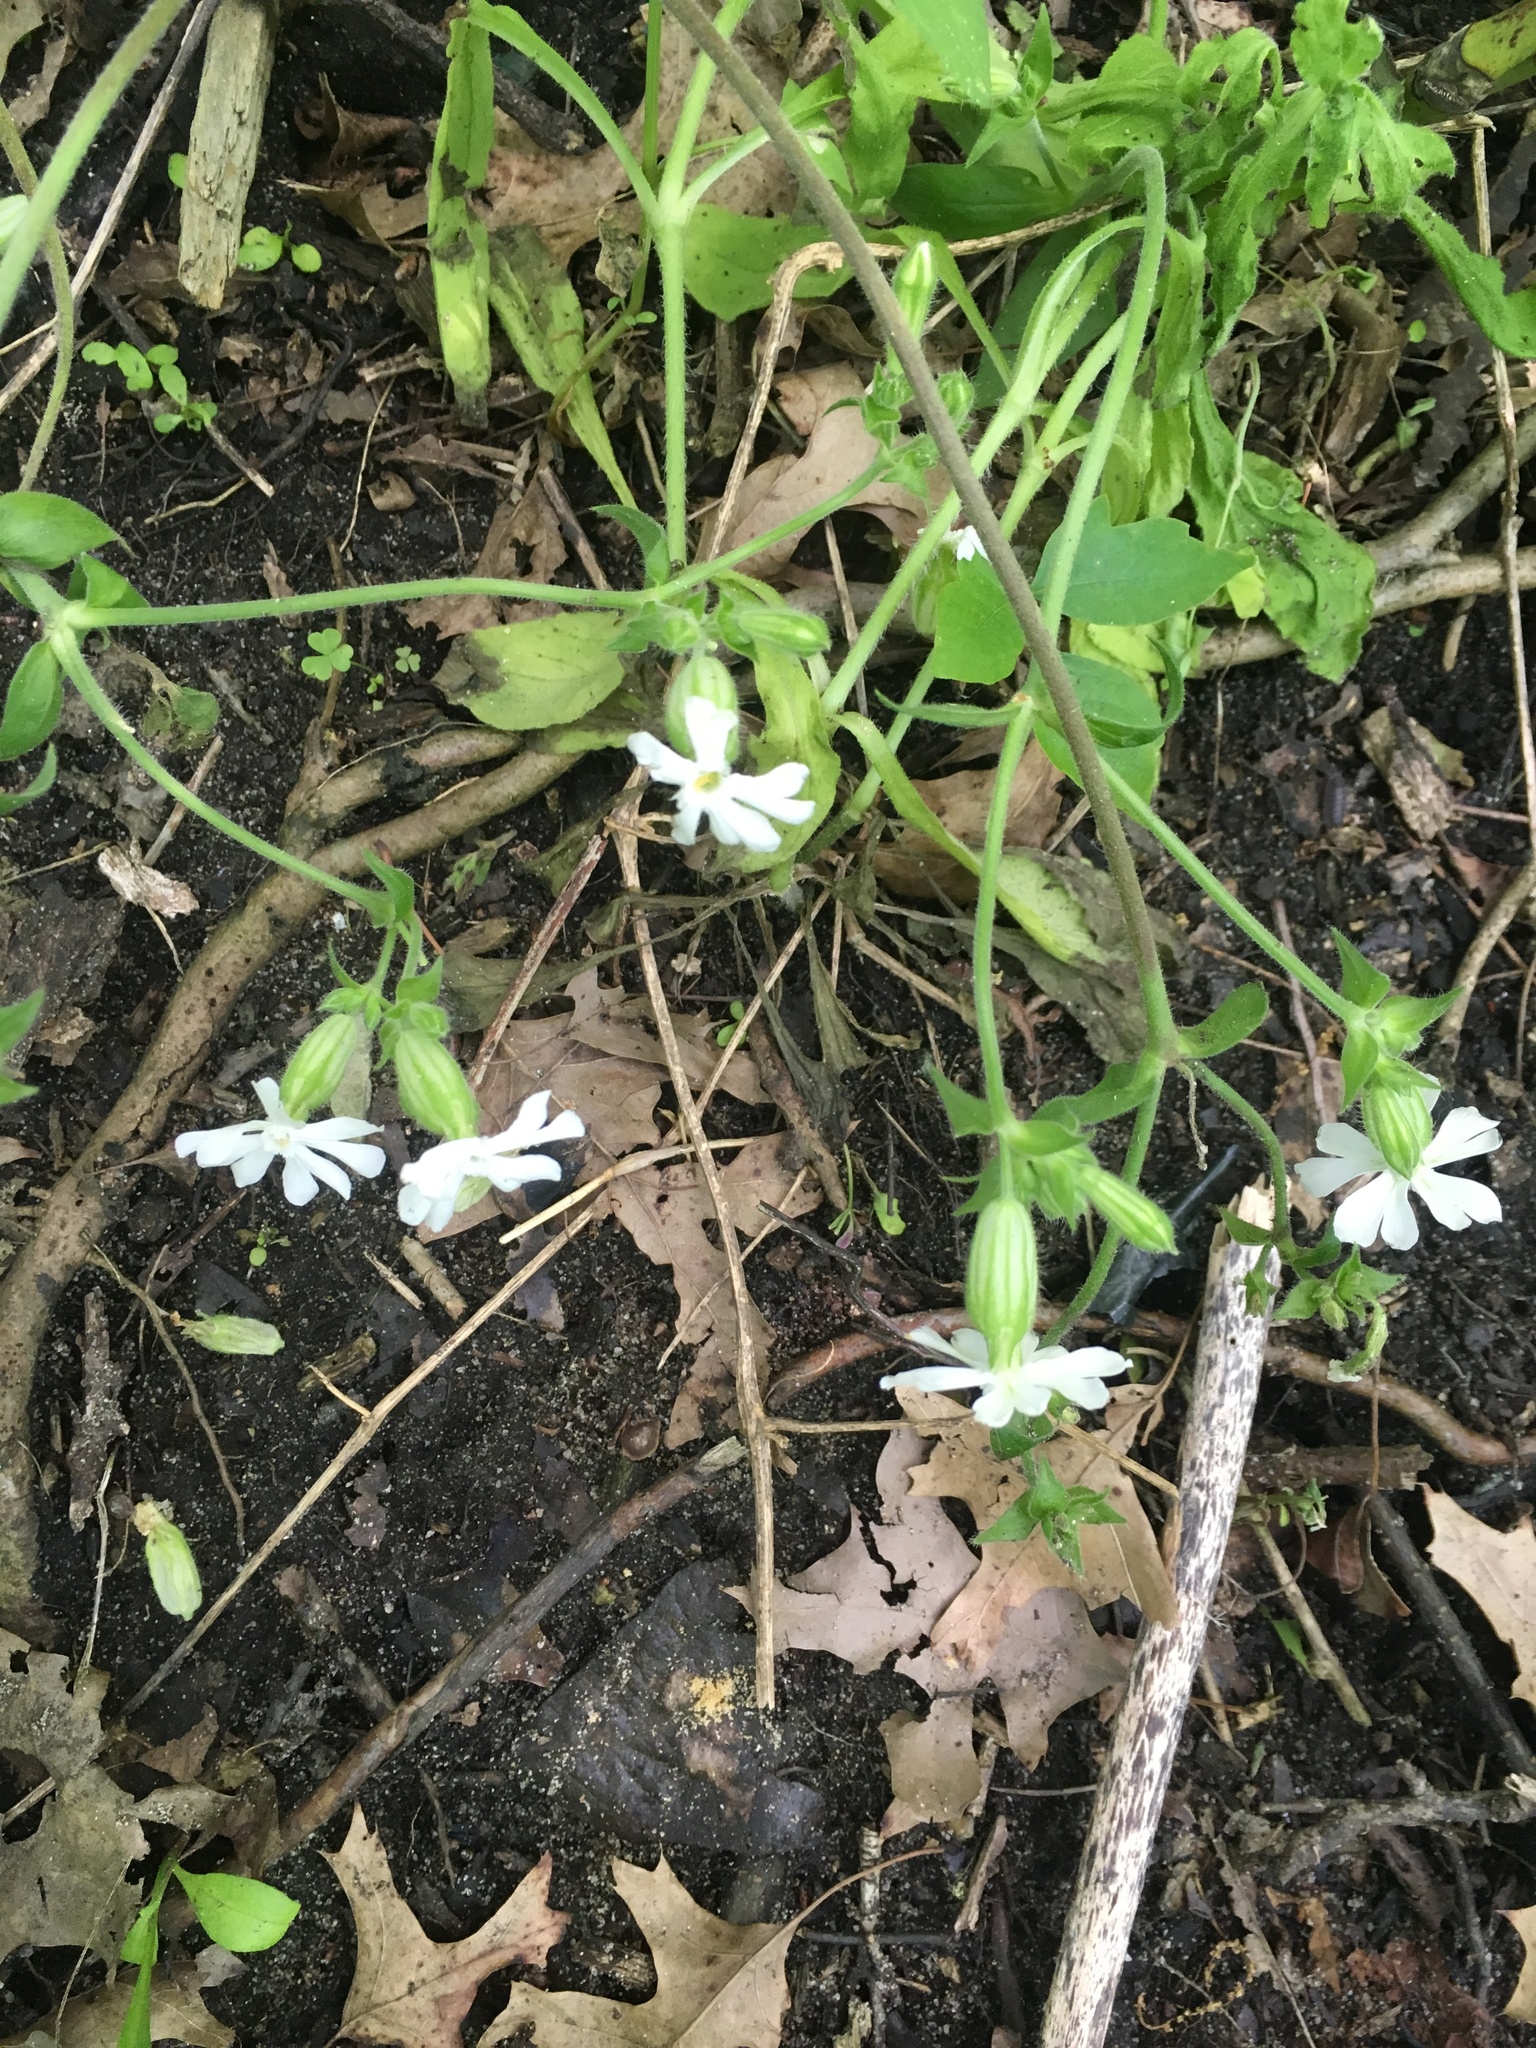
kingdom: Plantae
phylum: Tracheophyta
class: Magnoliopsida
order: Caryophyllales
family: Caryophyllaceae
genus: Silene
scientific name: Silene latifolia
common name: White campion
